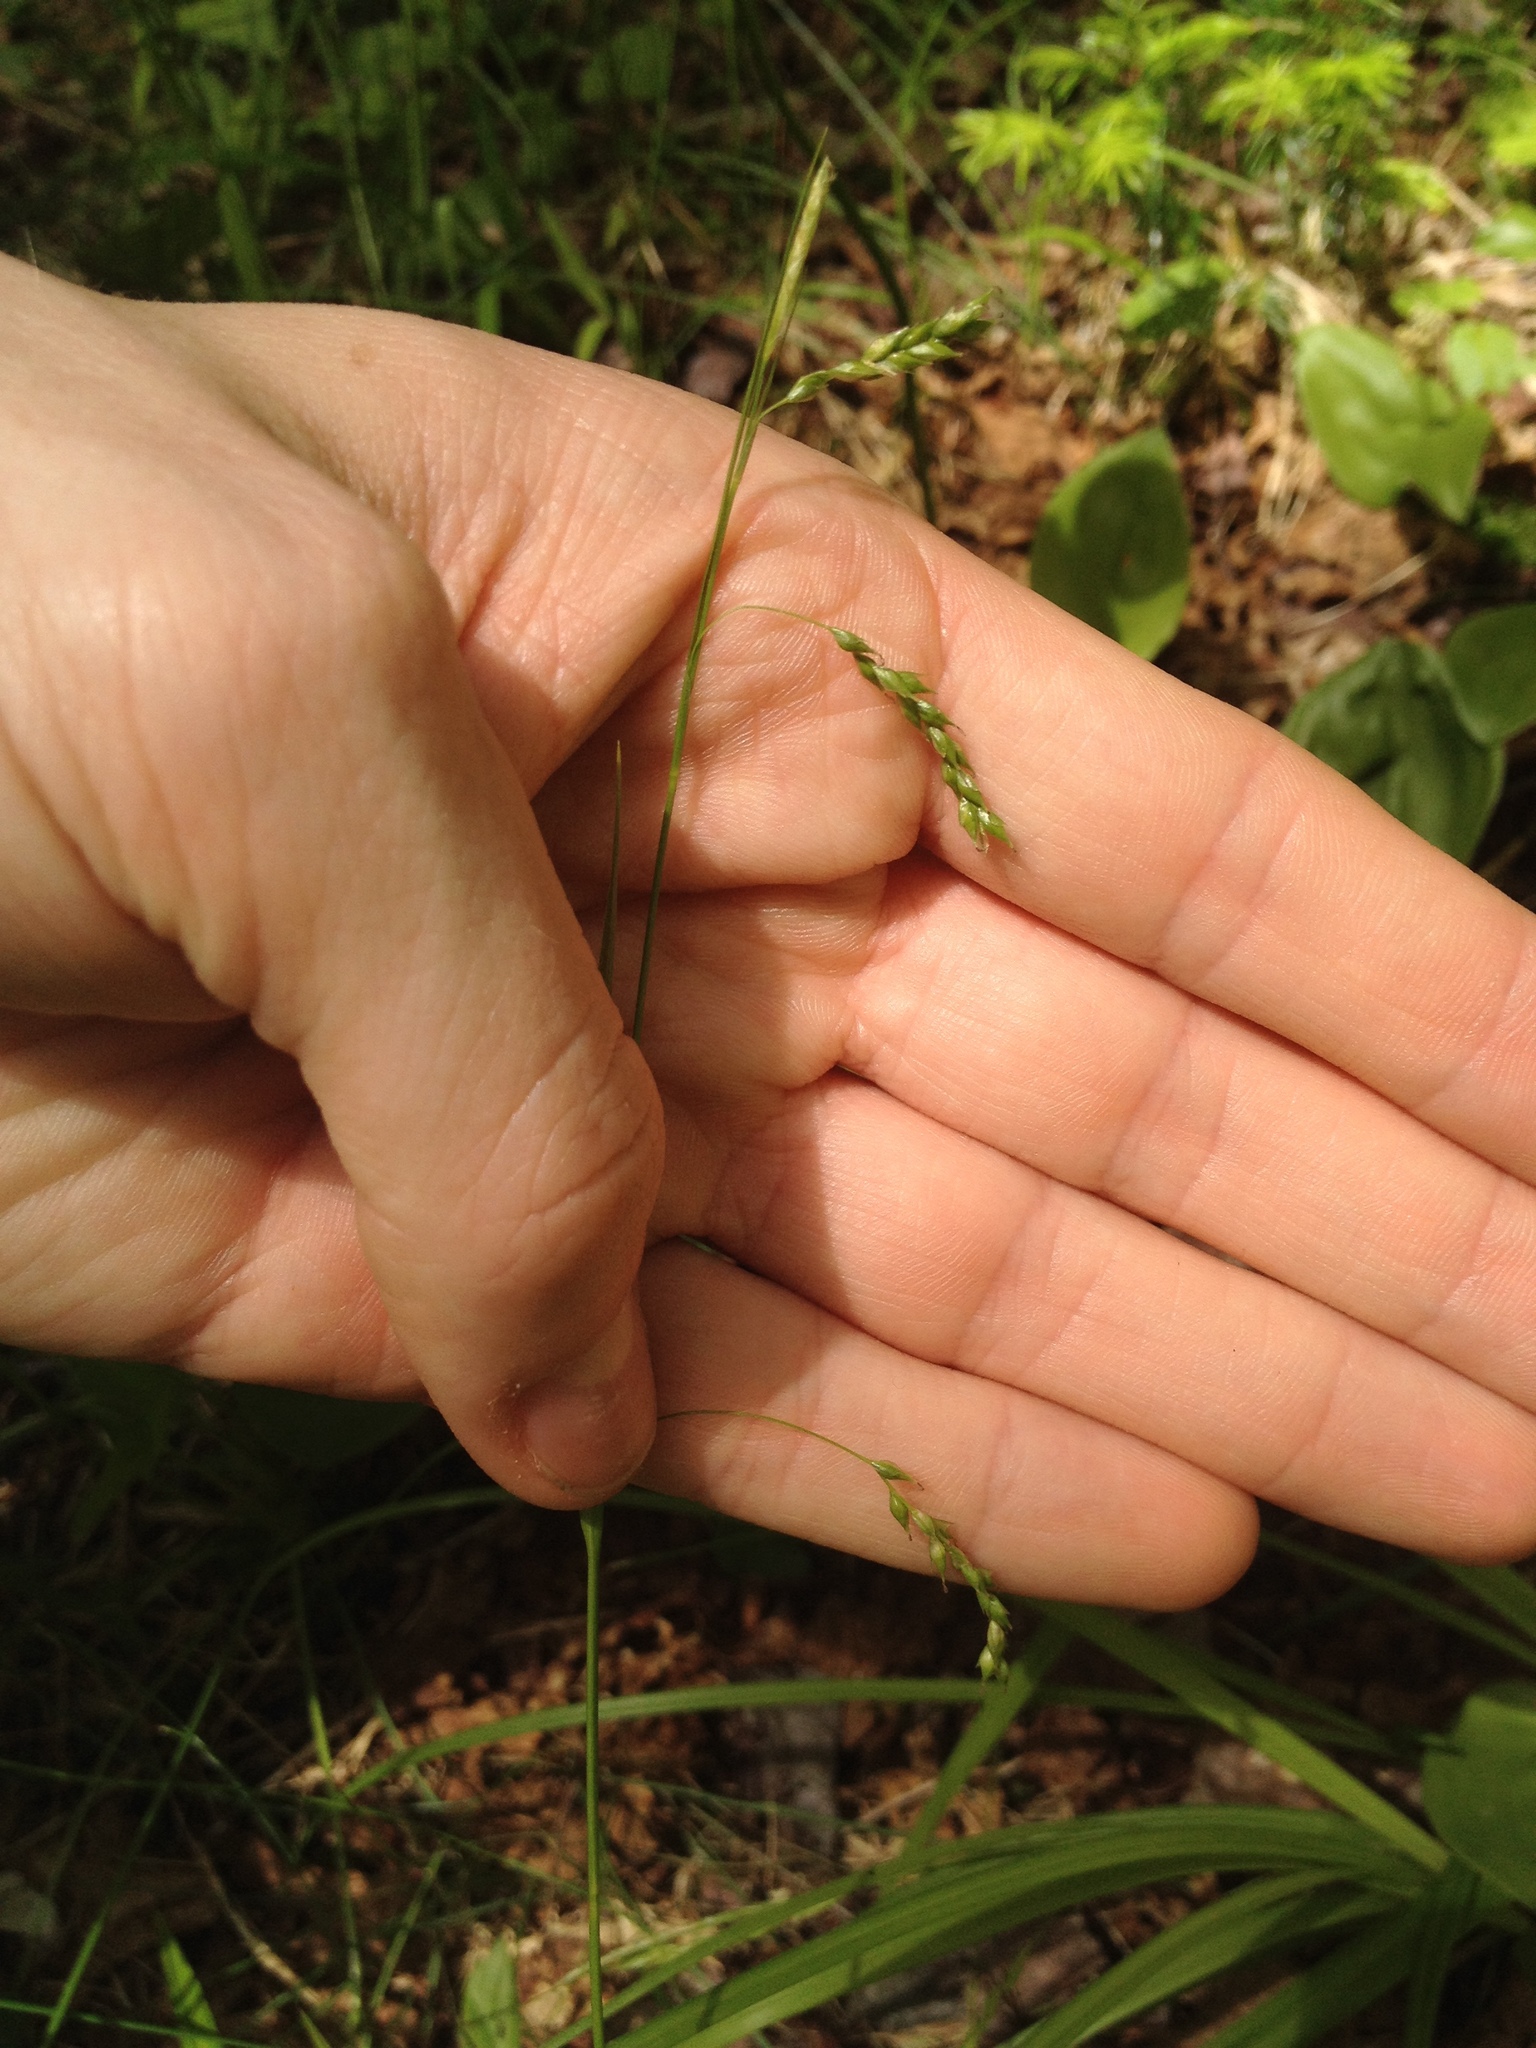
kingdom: Plantae
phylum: Tracheophyta
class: Liliopsida
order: Poales
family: Cyperaceae
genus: Carex
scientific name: Carex arctata
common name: Black sedge
